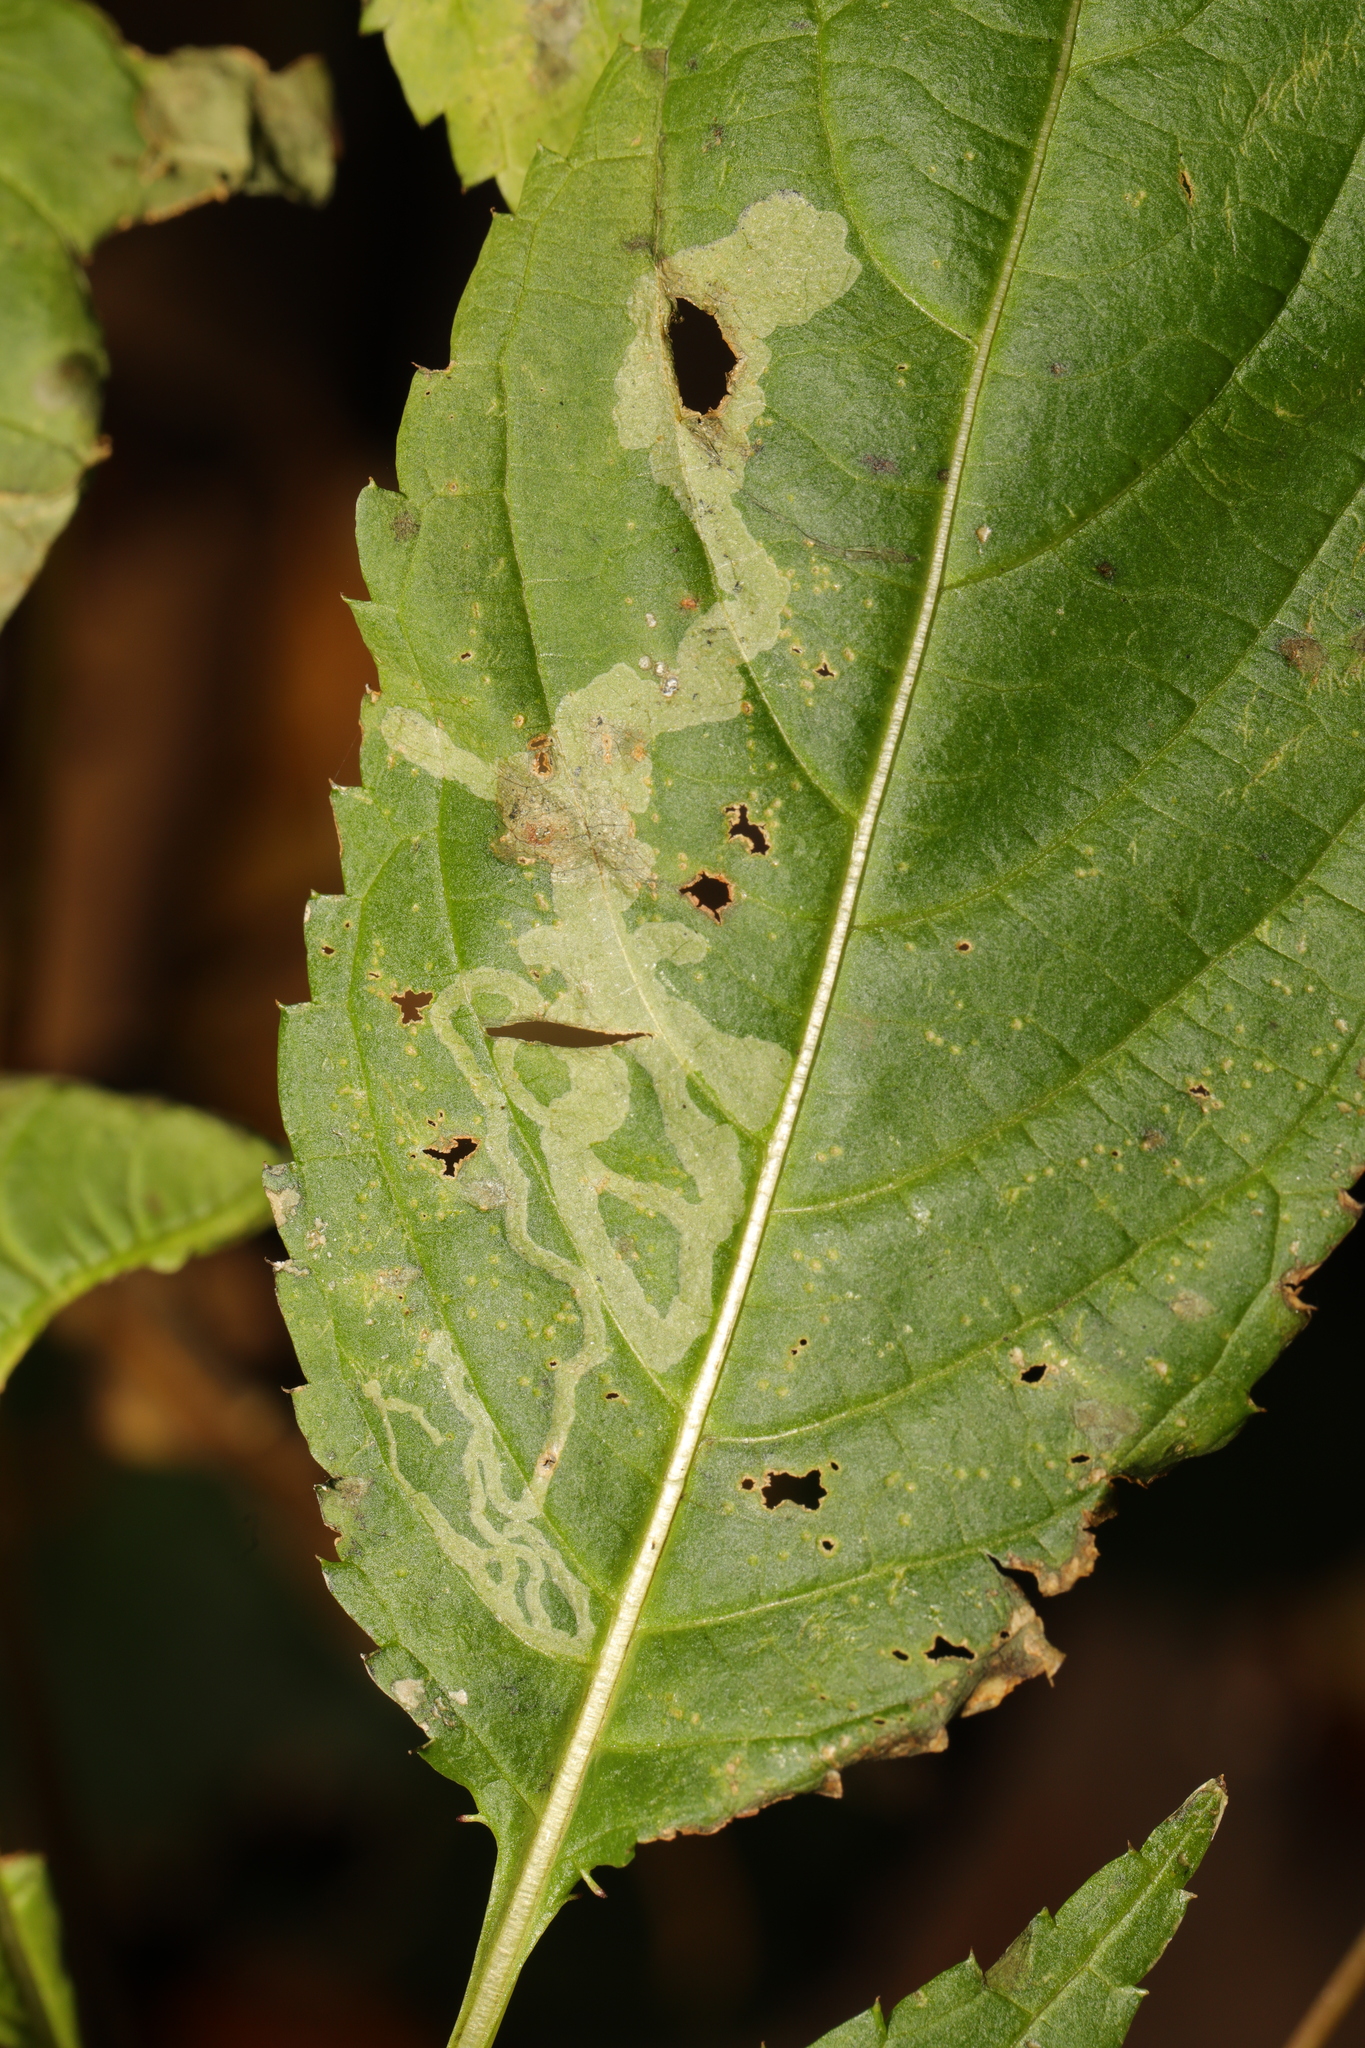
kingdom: Animalia
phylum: Arthropoda
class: Insecta
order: Diptera
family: Agromyzidae
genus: Phytoliriomyza
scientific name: Phytoliriomyza melampyga
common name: Jewelweed leaf-miner fly
